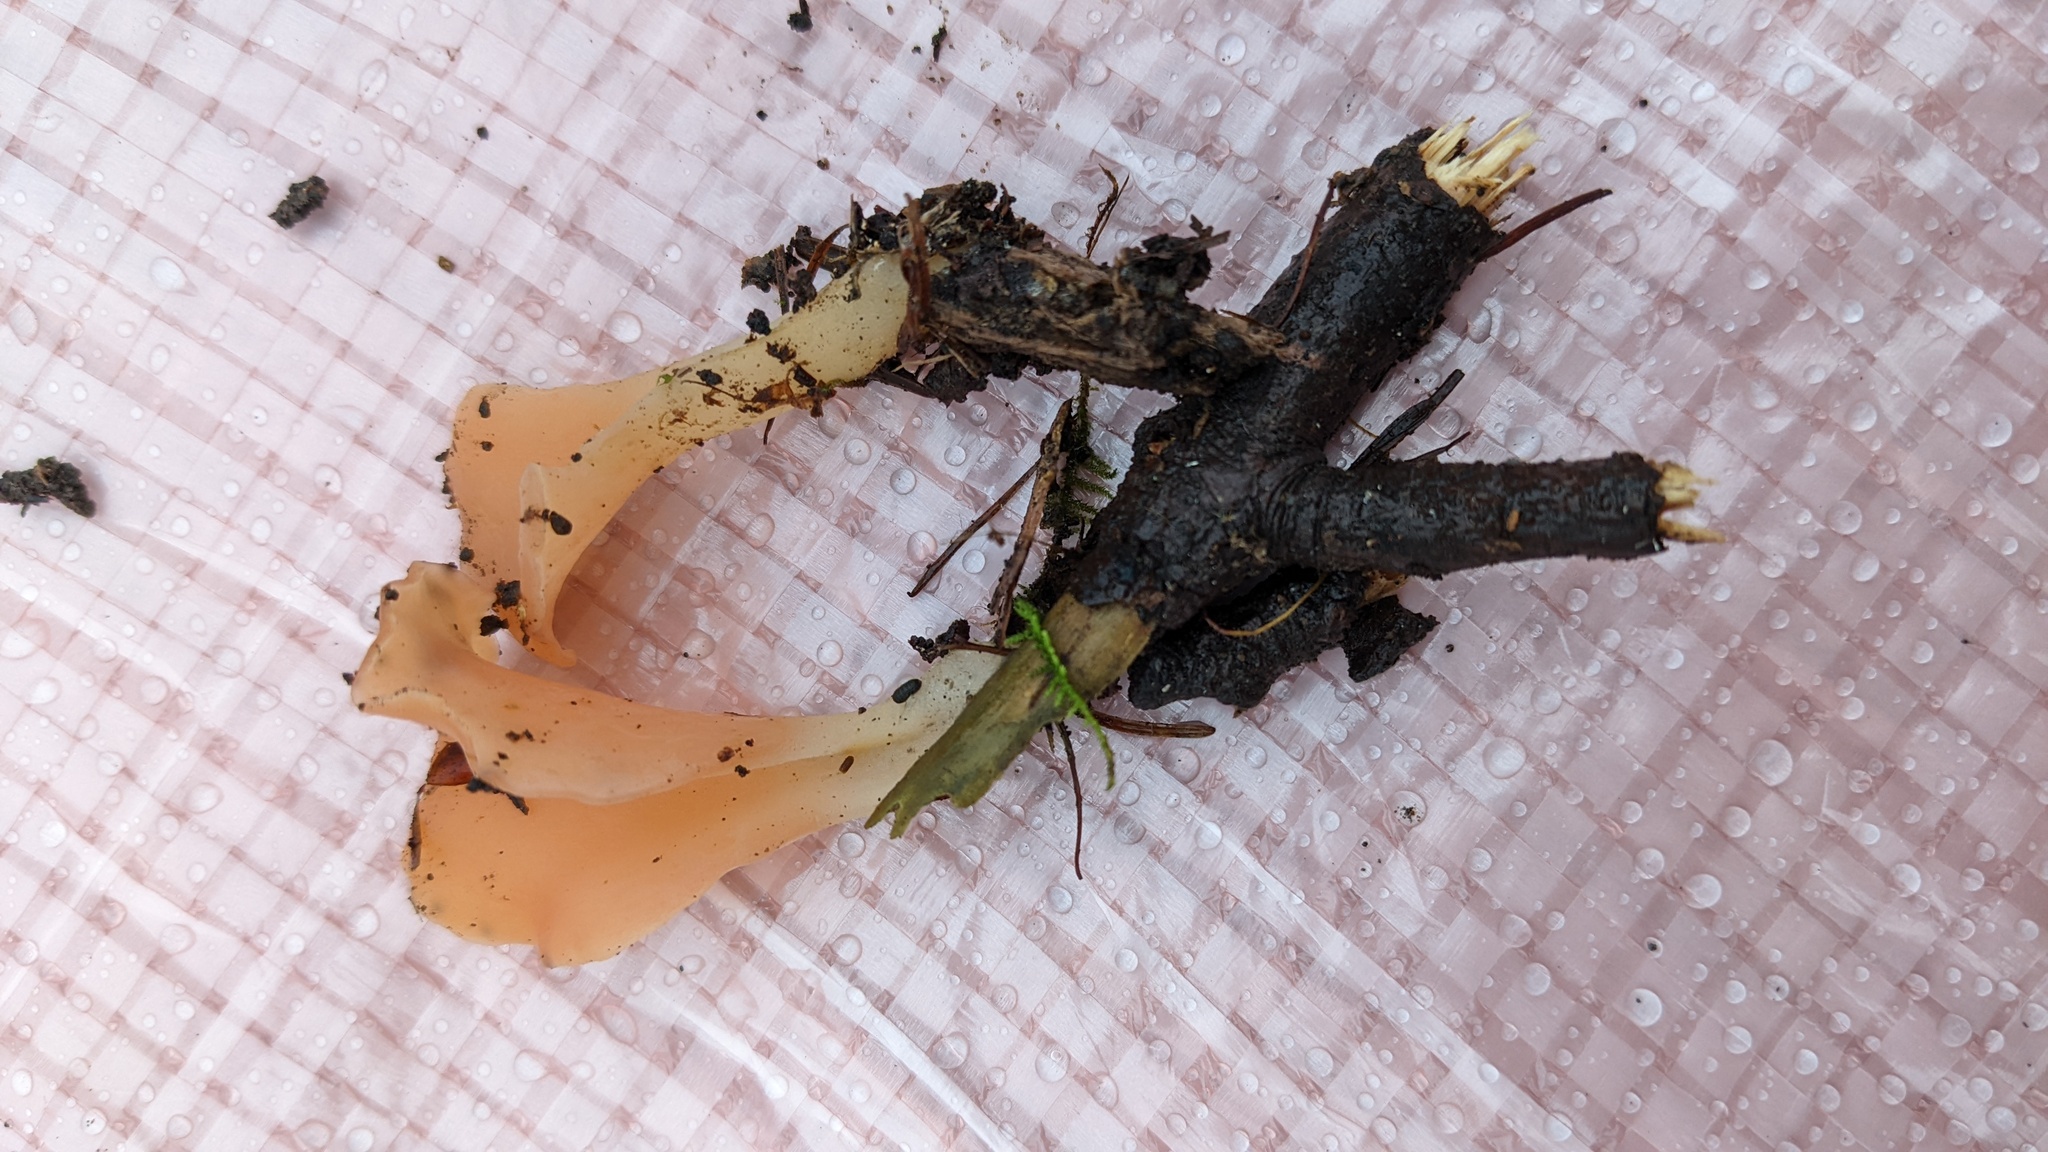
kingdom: Fungi
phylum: Basidiomycota
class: Agaricomycetes
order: Auriculariales
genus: Guepinia
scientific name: Guepinia helvelloides
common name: Salmon salad
